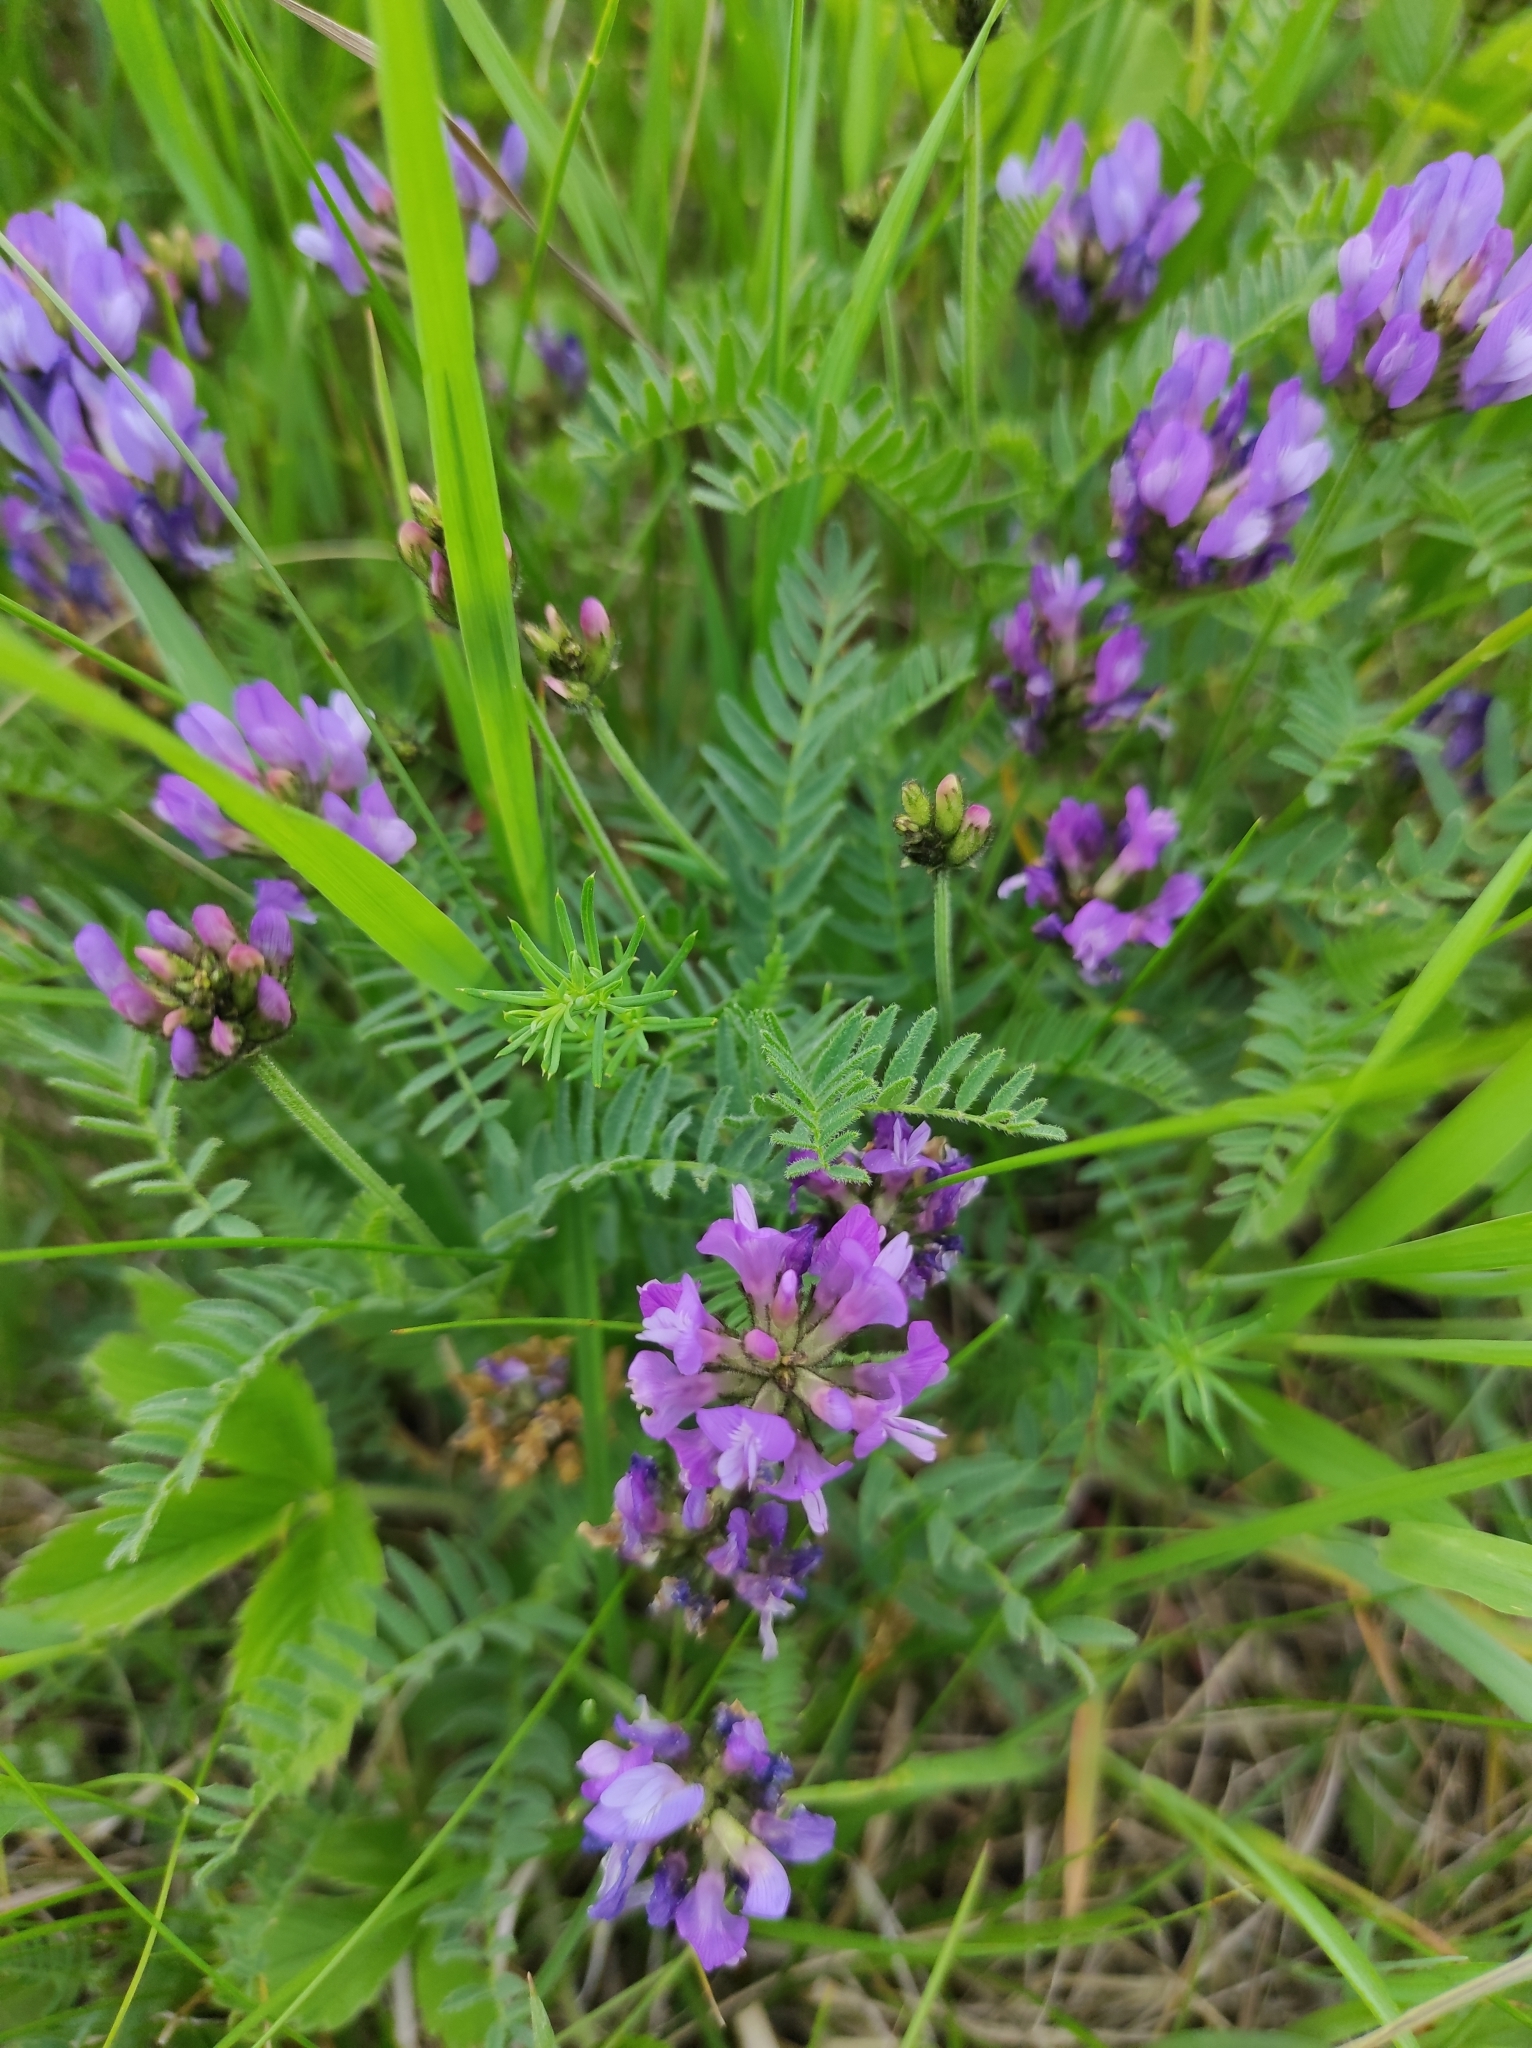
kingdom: Plantae
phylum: Tracheophyta
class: Magnoliopsida
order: Fabales
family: Fabaceae
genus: Astragalus
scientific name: Astragalus danicus
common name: Purple milk-vetch
